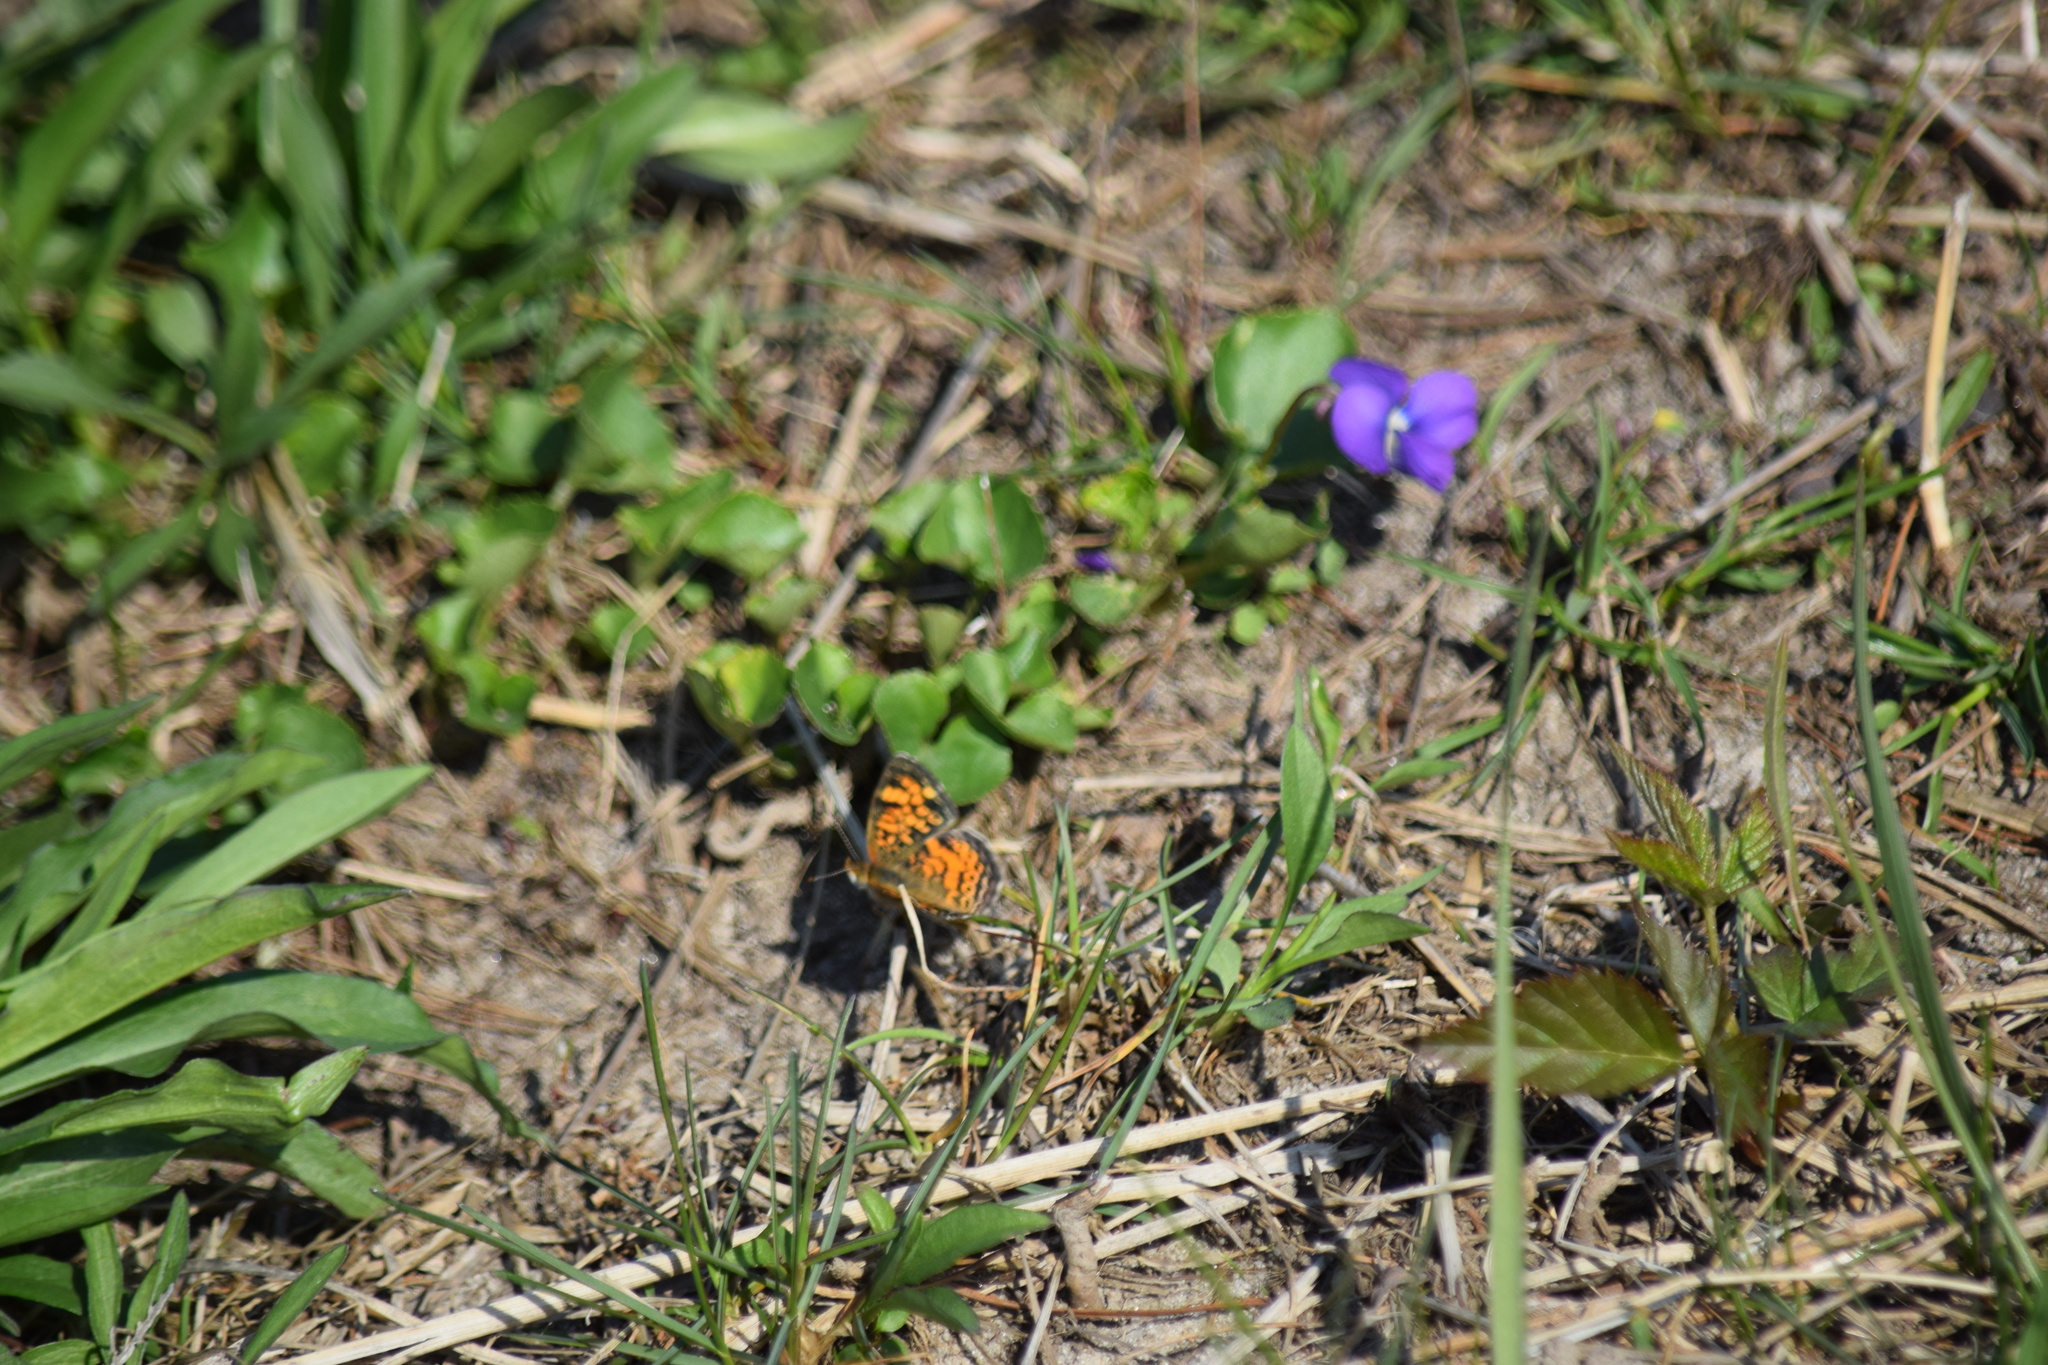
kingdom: Animalia
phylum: Arthropoda
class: Insecta
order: Lepidoptera
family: Nymphalidae
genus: Phyciodes
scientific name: Phyciodes tharos
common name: Pearl crescent
